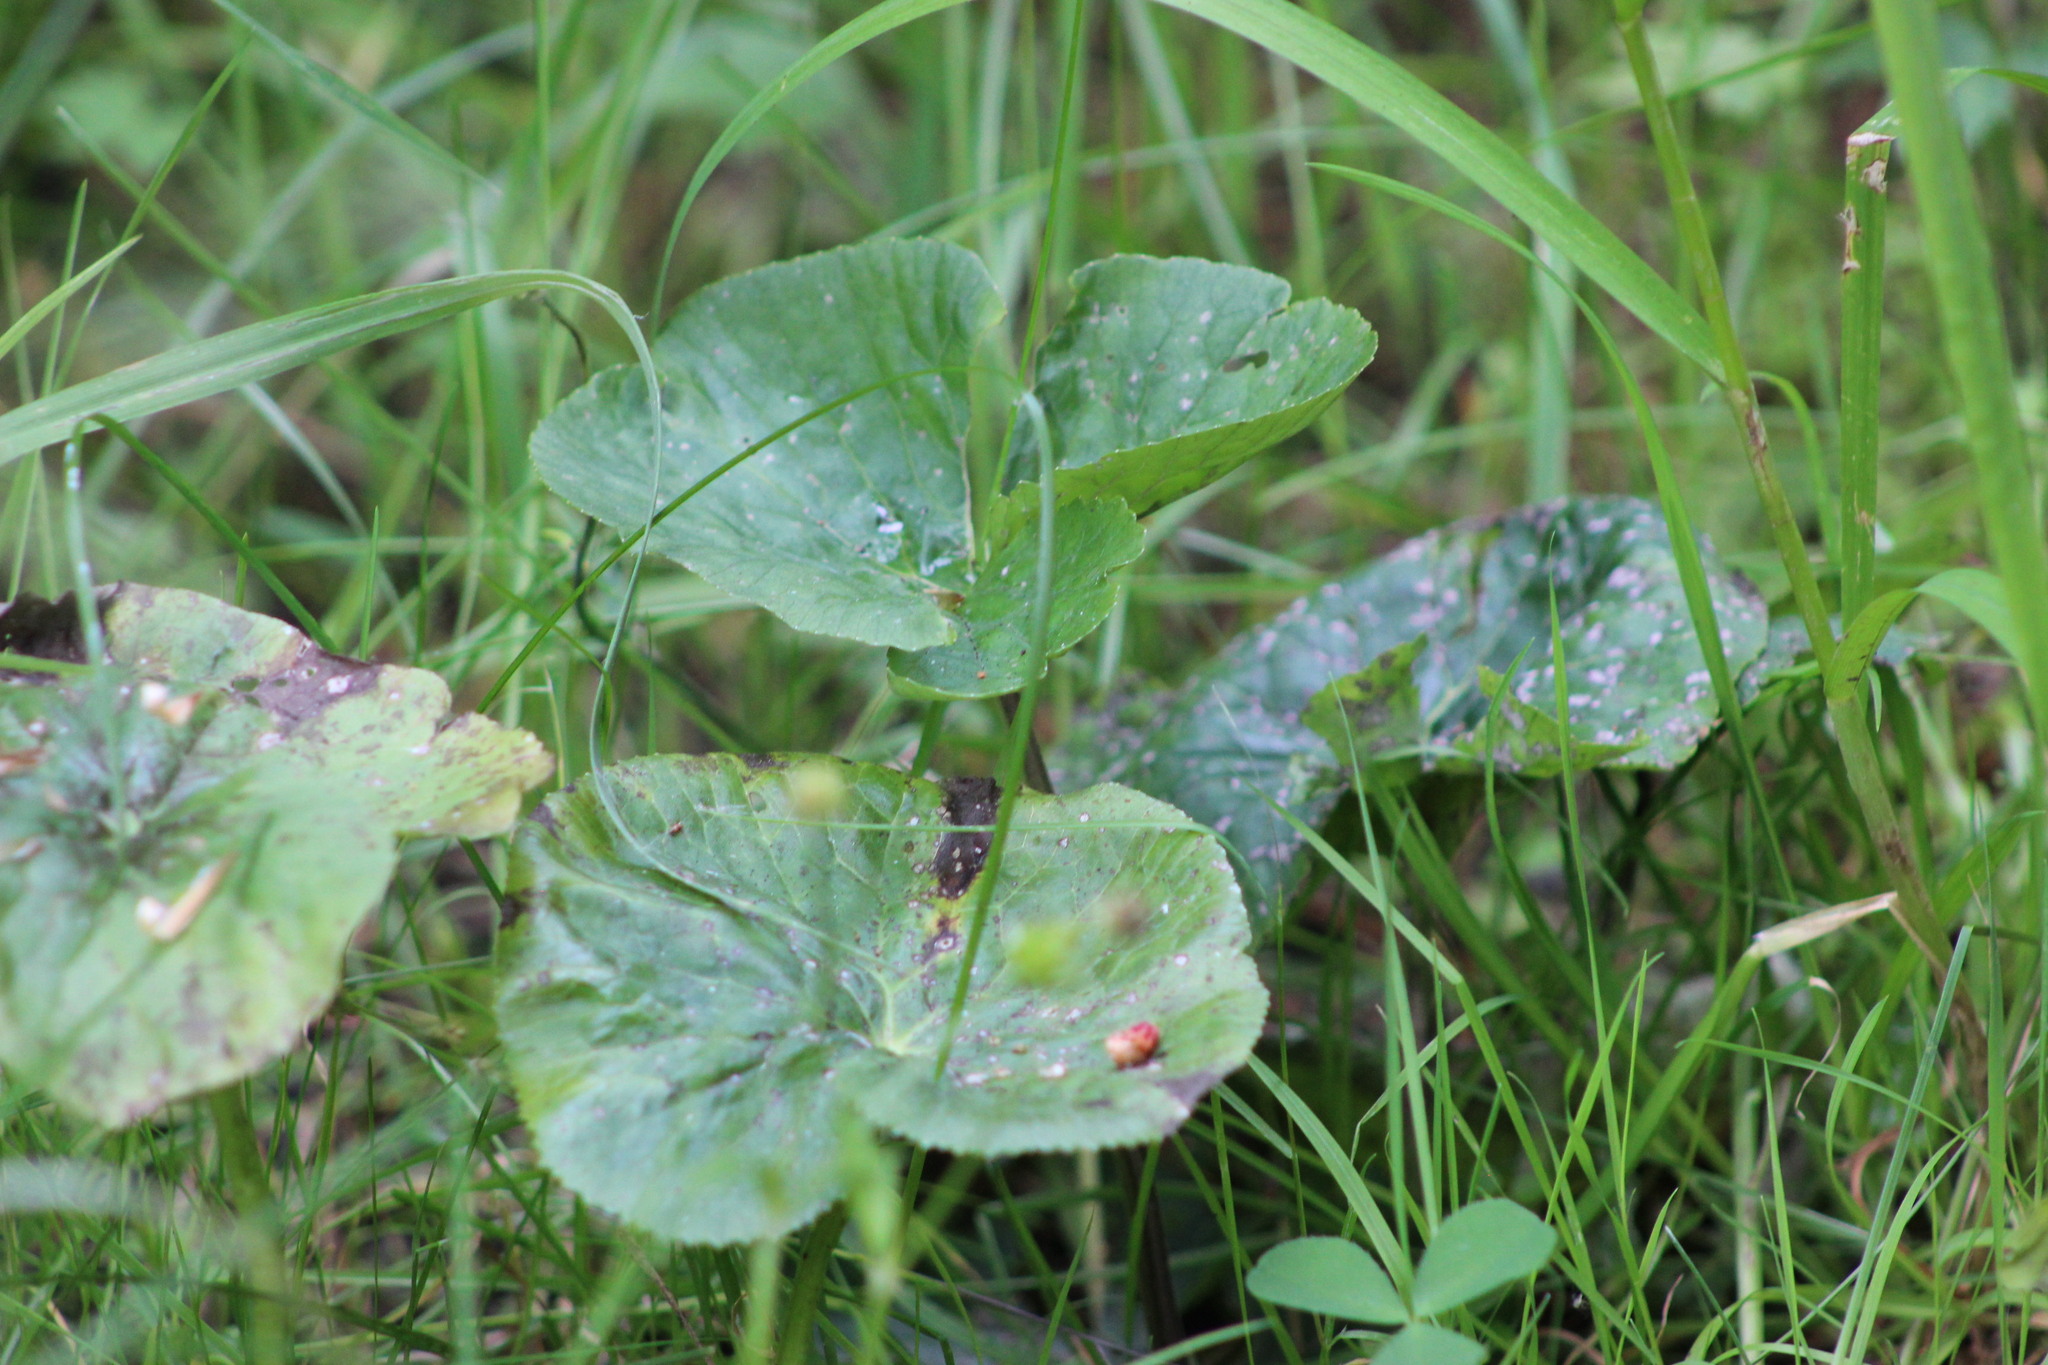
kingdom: Plantae
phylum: Tracheophyta
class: Magnoliopsida
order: Ranunculales
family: Ranunculaceae
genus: Caltha
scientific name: Caltha palustris
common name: Marsh marigold
